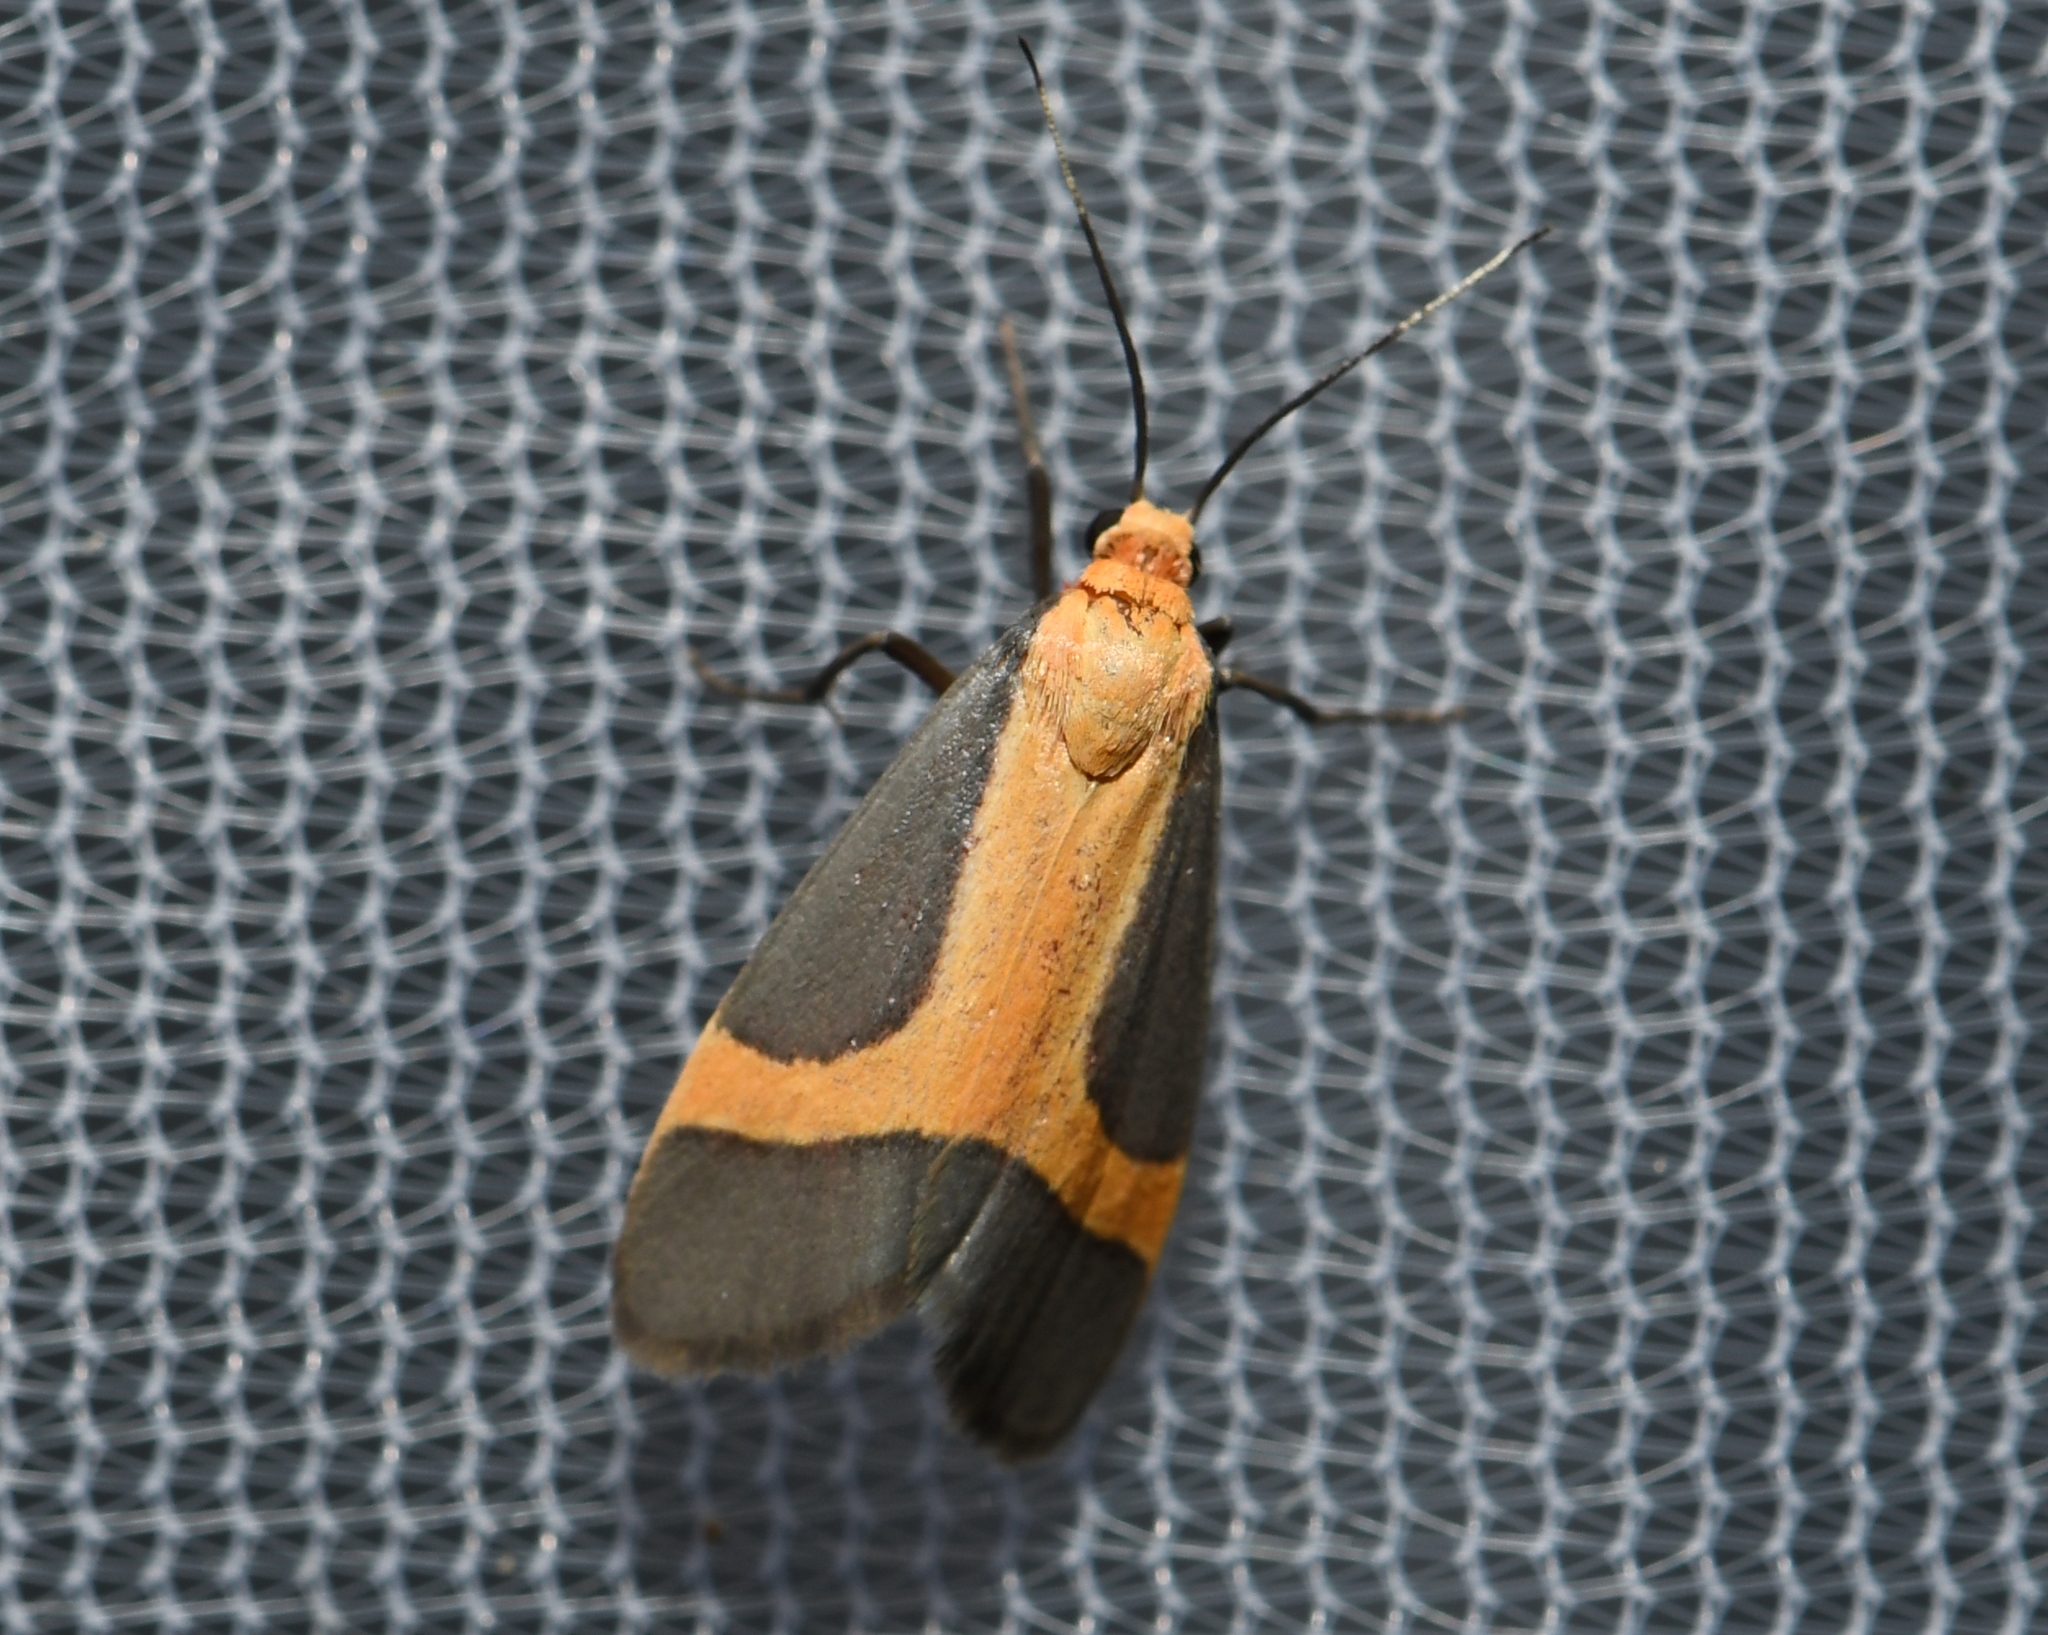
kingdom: Animalia
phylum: Arthropoda
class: Insecta
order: Lepidoptera
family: Erebidae
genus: Cisthene
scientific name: Cisthene angelus
